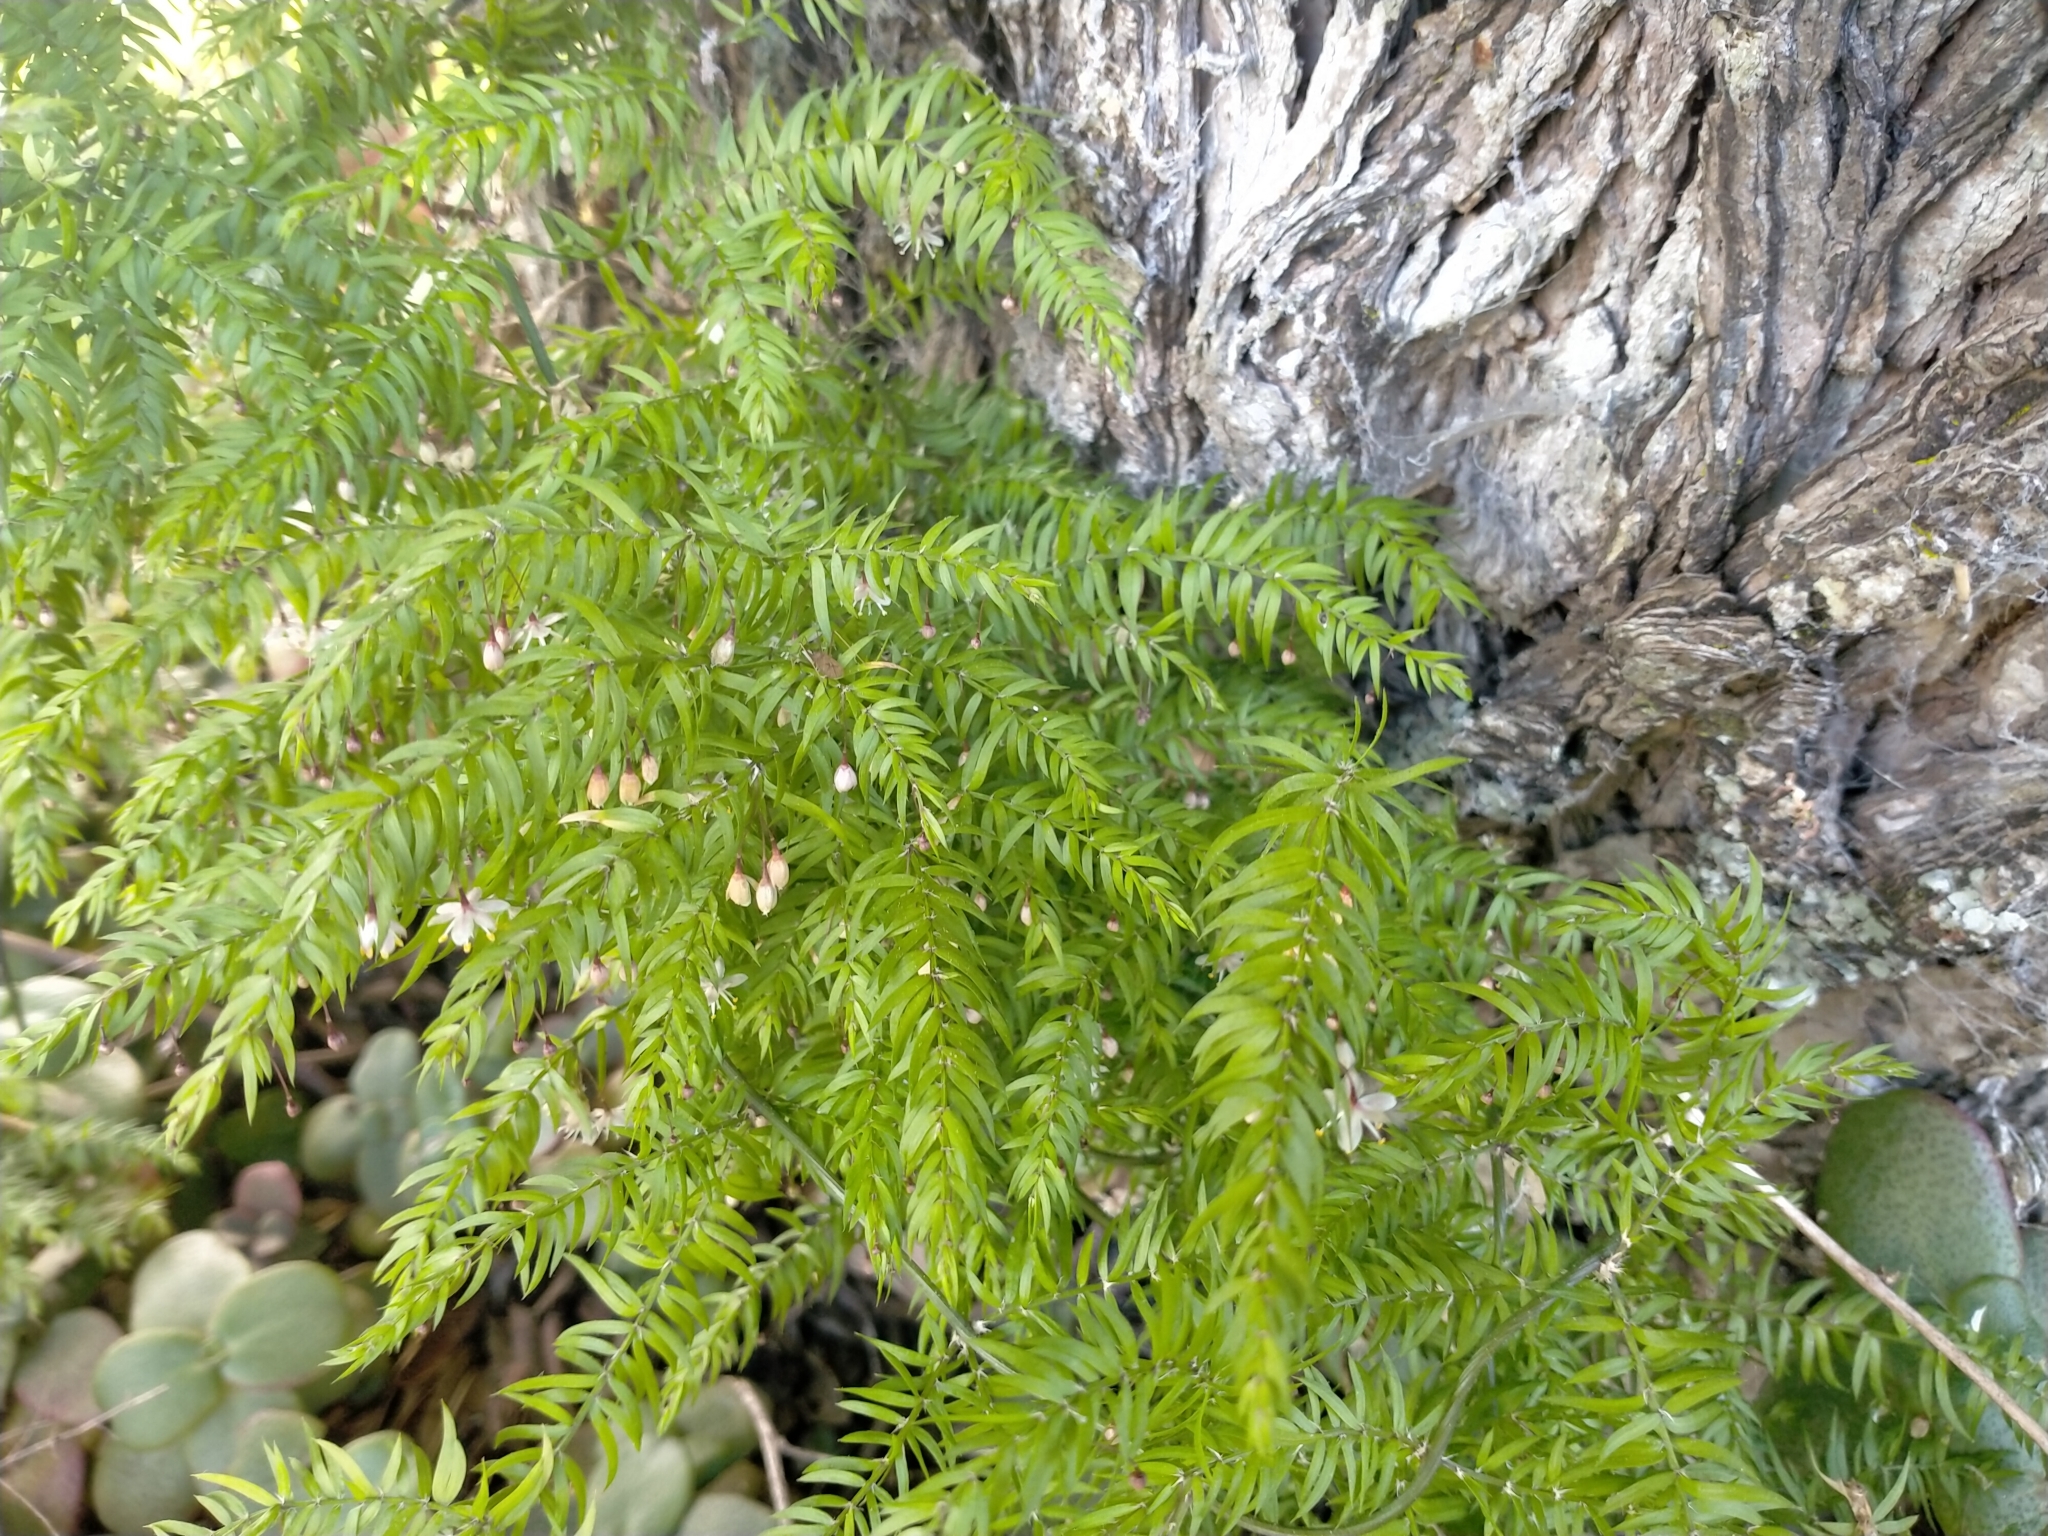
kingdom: Plantae
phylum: Tracheophyta
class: Liliopsida
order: Asparagales
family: Asparagaceae
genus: Asparagus
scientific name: Asparagus scandens
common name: Asparagus-fern
